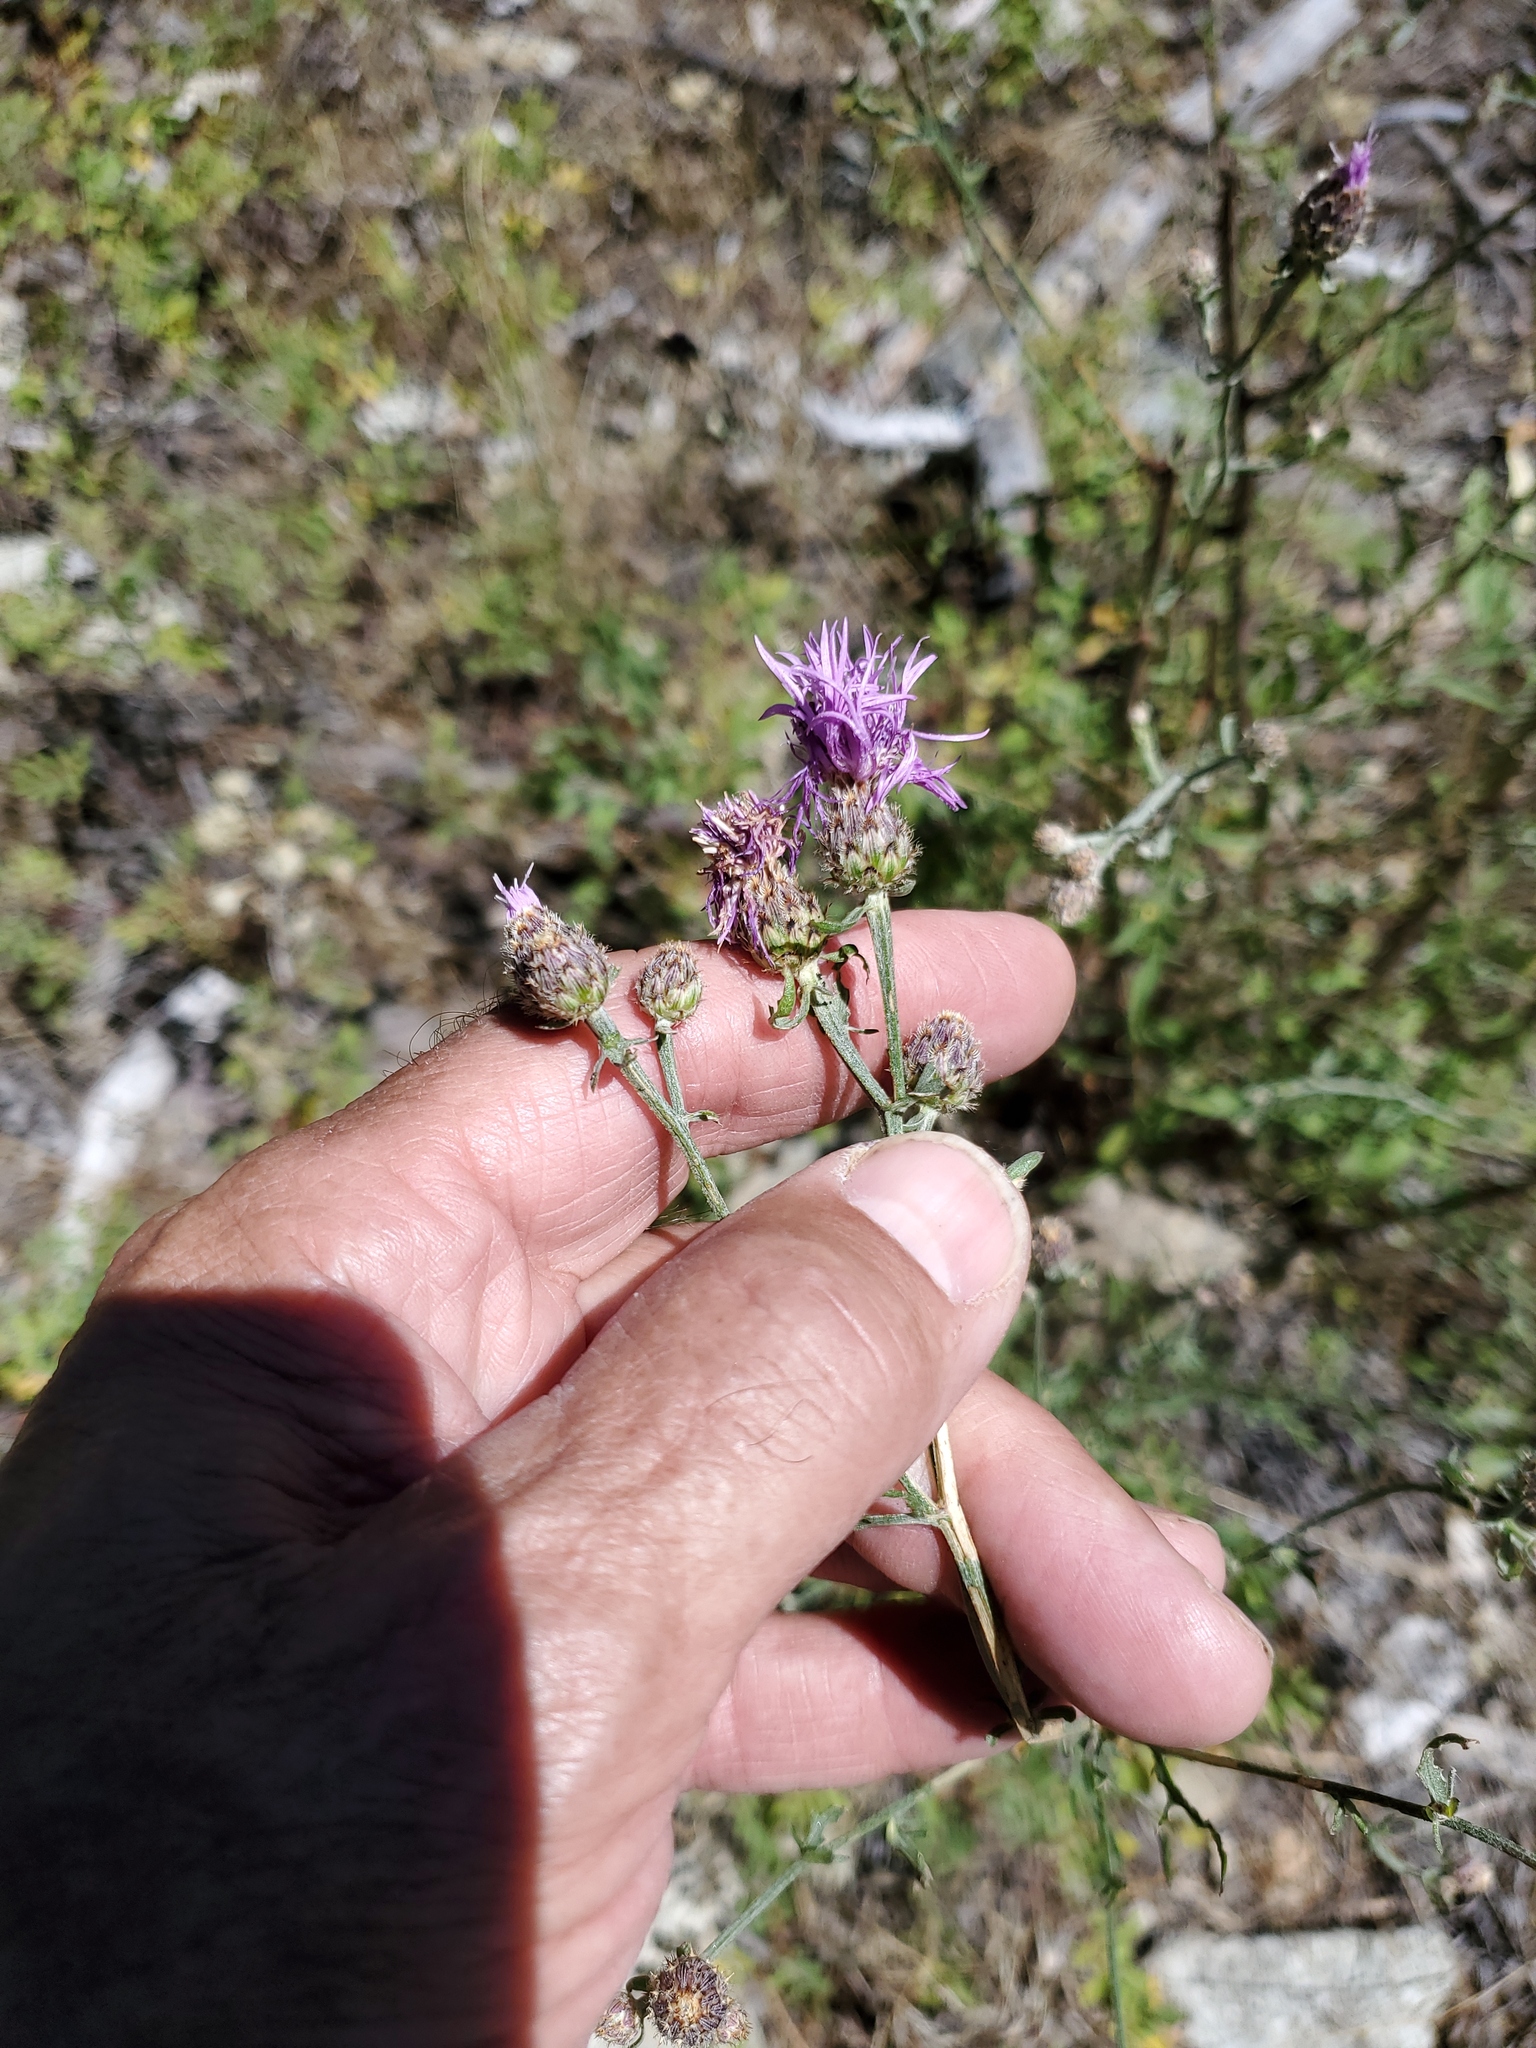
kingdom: Plantae
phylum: Tracheophyta
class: Magnoliopsida
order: Asterales
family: Asteraceae
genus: Centaurea
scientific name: Centaurea stoebe
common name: Spotted knapweed
